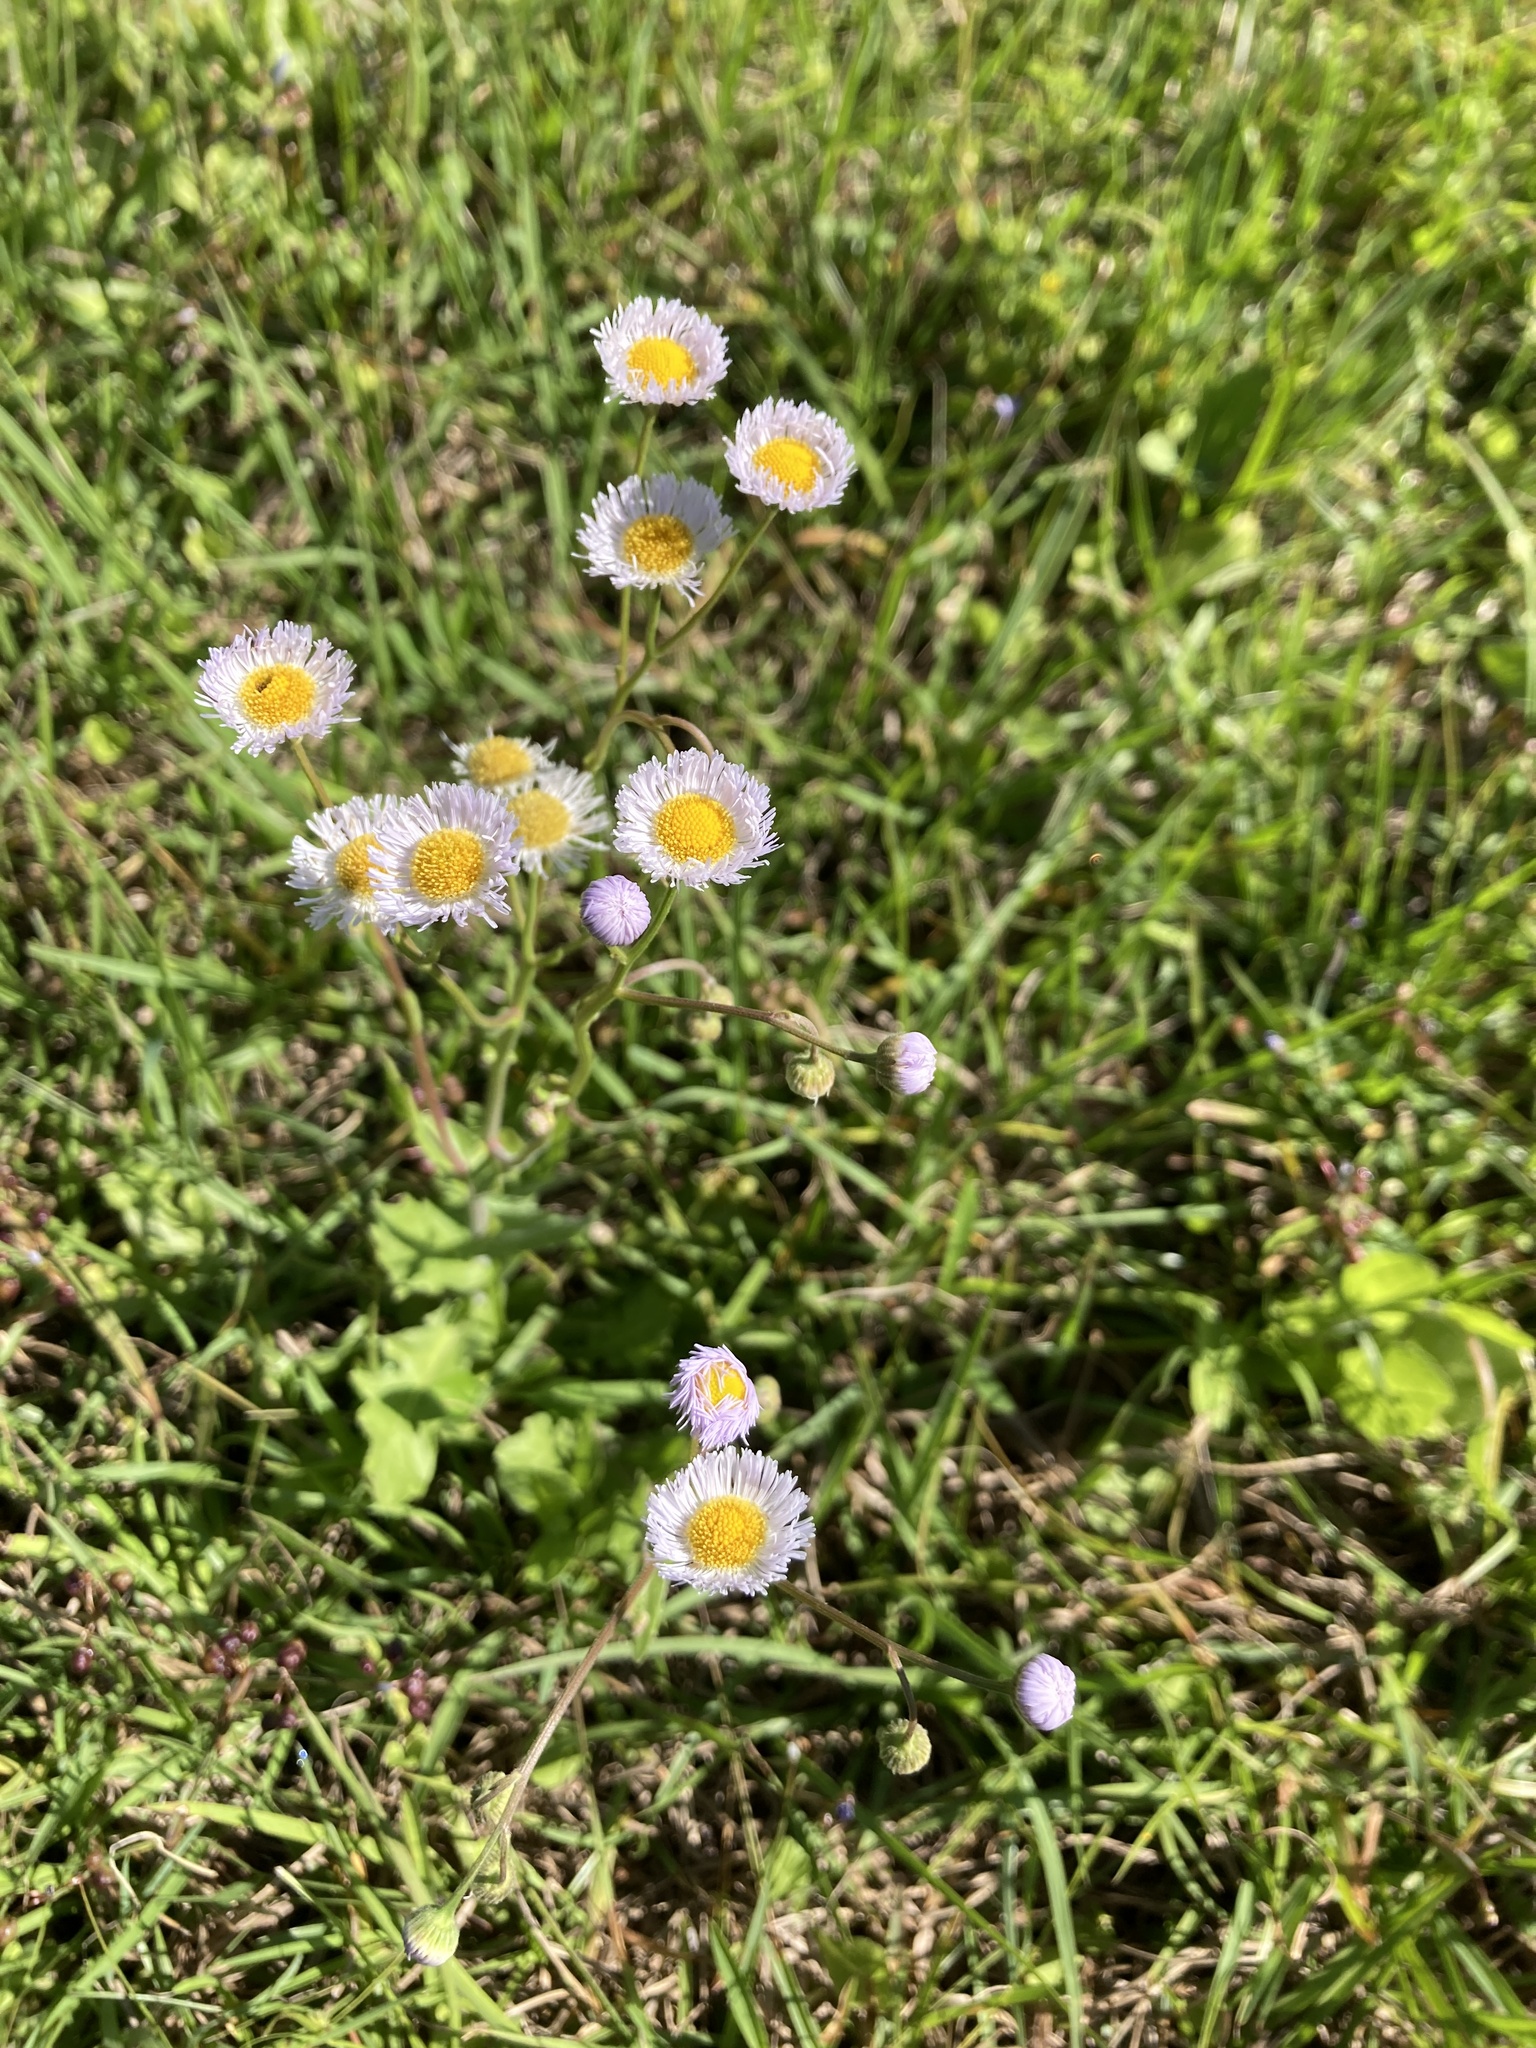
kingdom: Plantae
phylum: Tracheophyta
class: Magnoliopsida
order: Asterales
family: Asteraceae
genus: Erigeron
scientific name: Erigeron quercifolius
